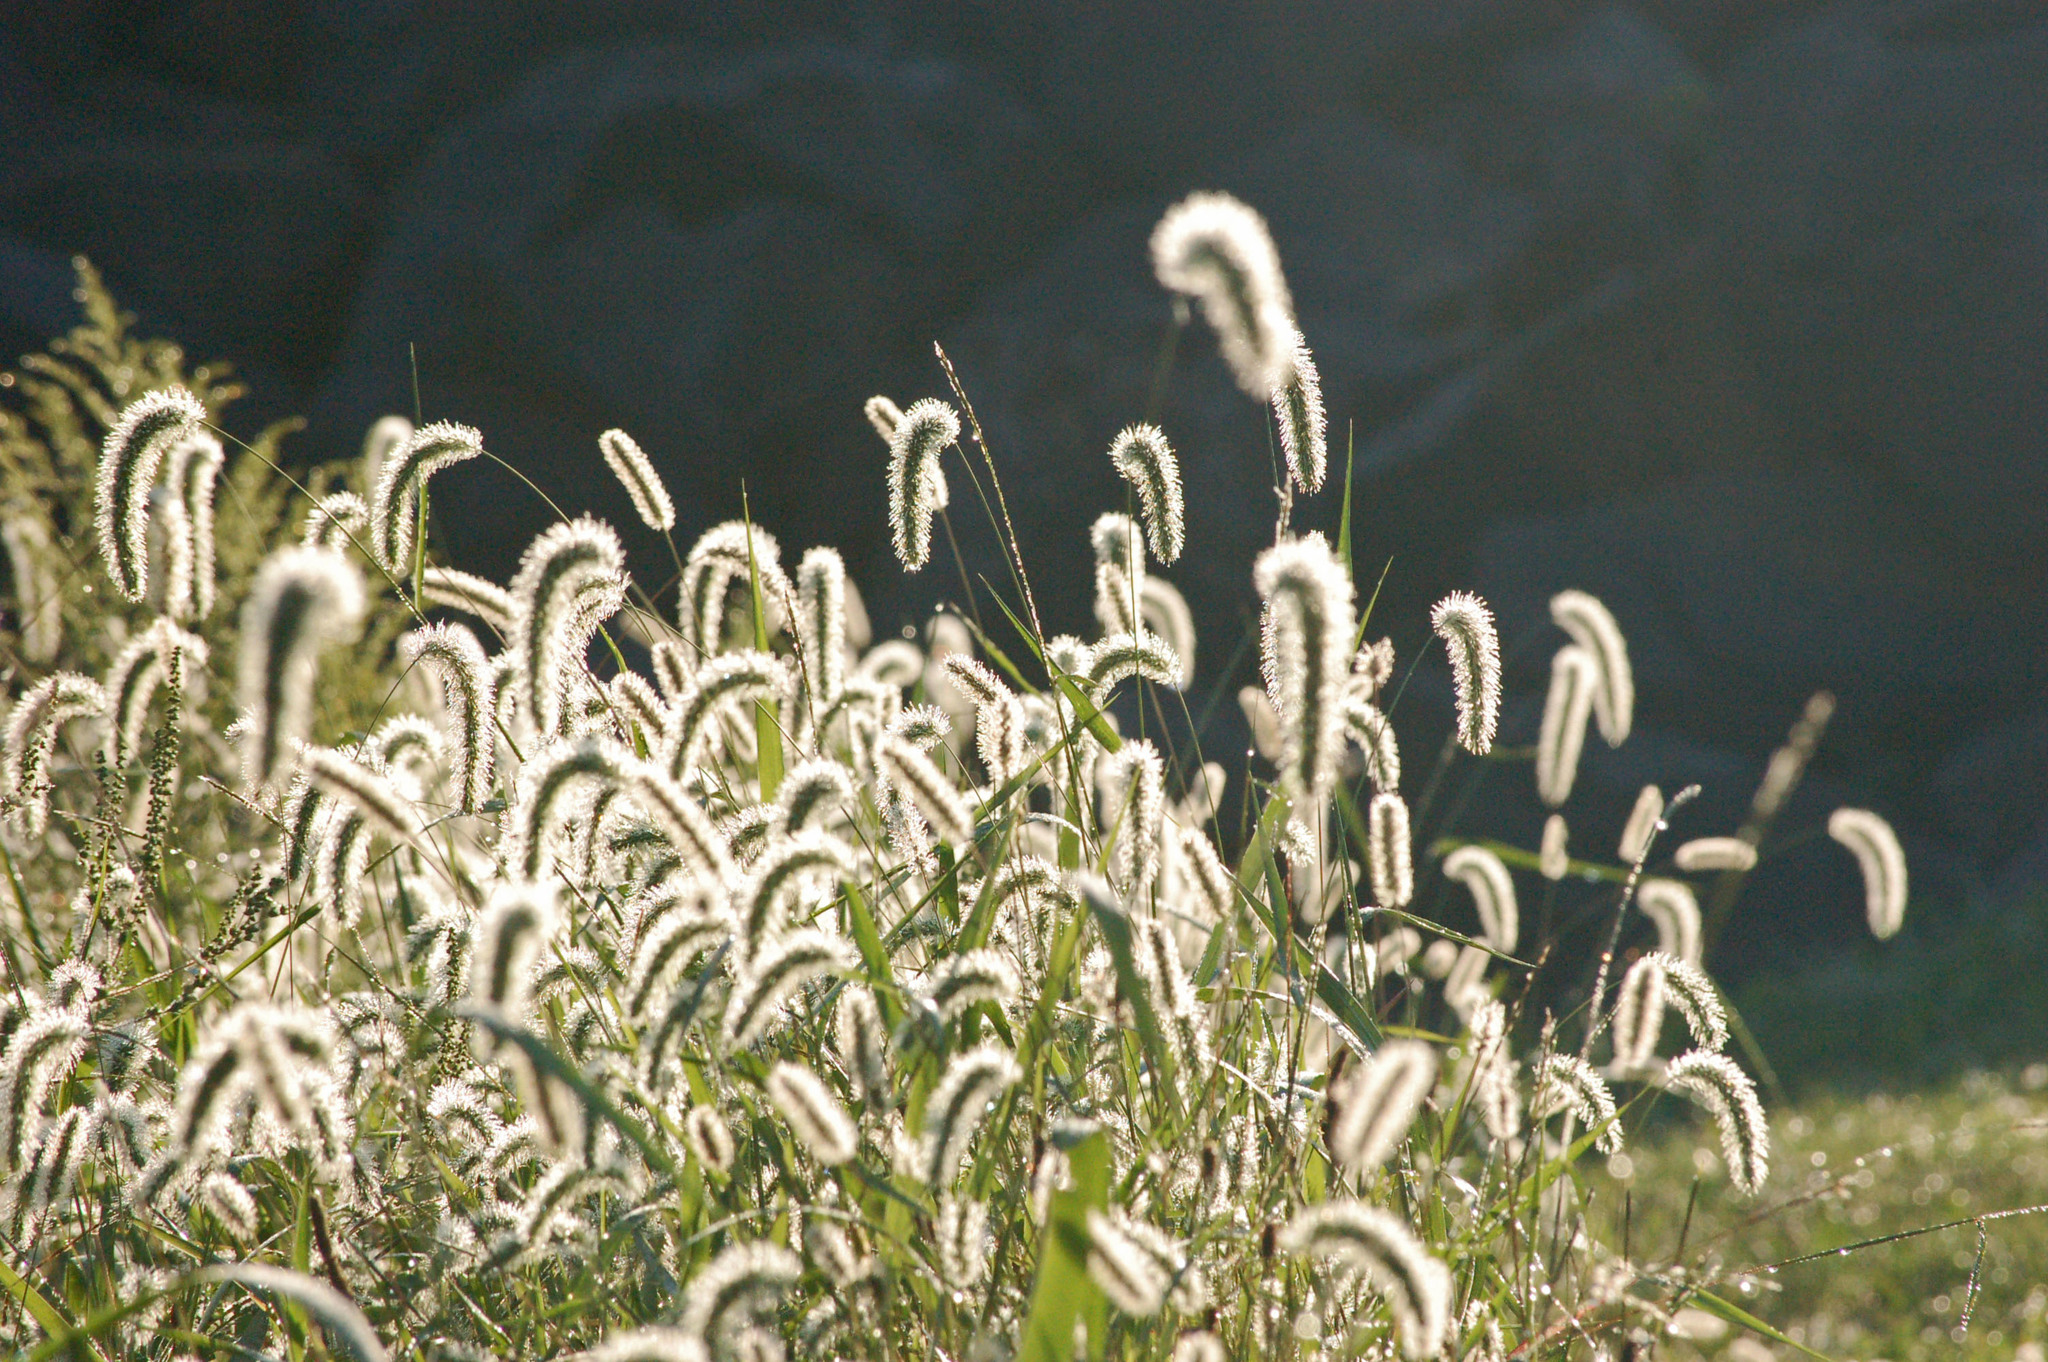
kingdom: Plantae
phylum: Tracheophyta
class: Liliopsida
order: Poales
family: Poaceae
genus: Setaria
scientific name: Setaria faberi
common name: Nodding bristle-grass
